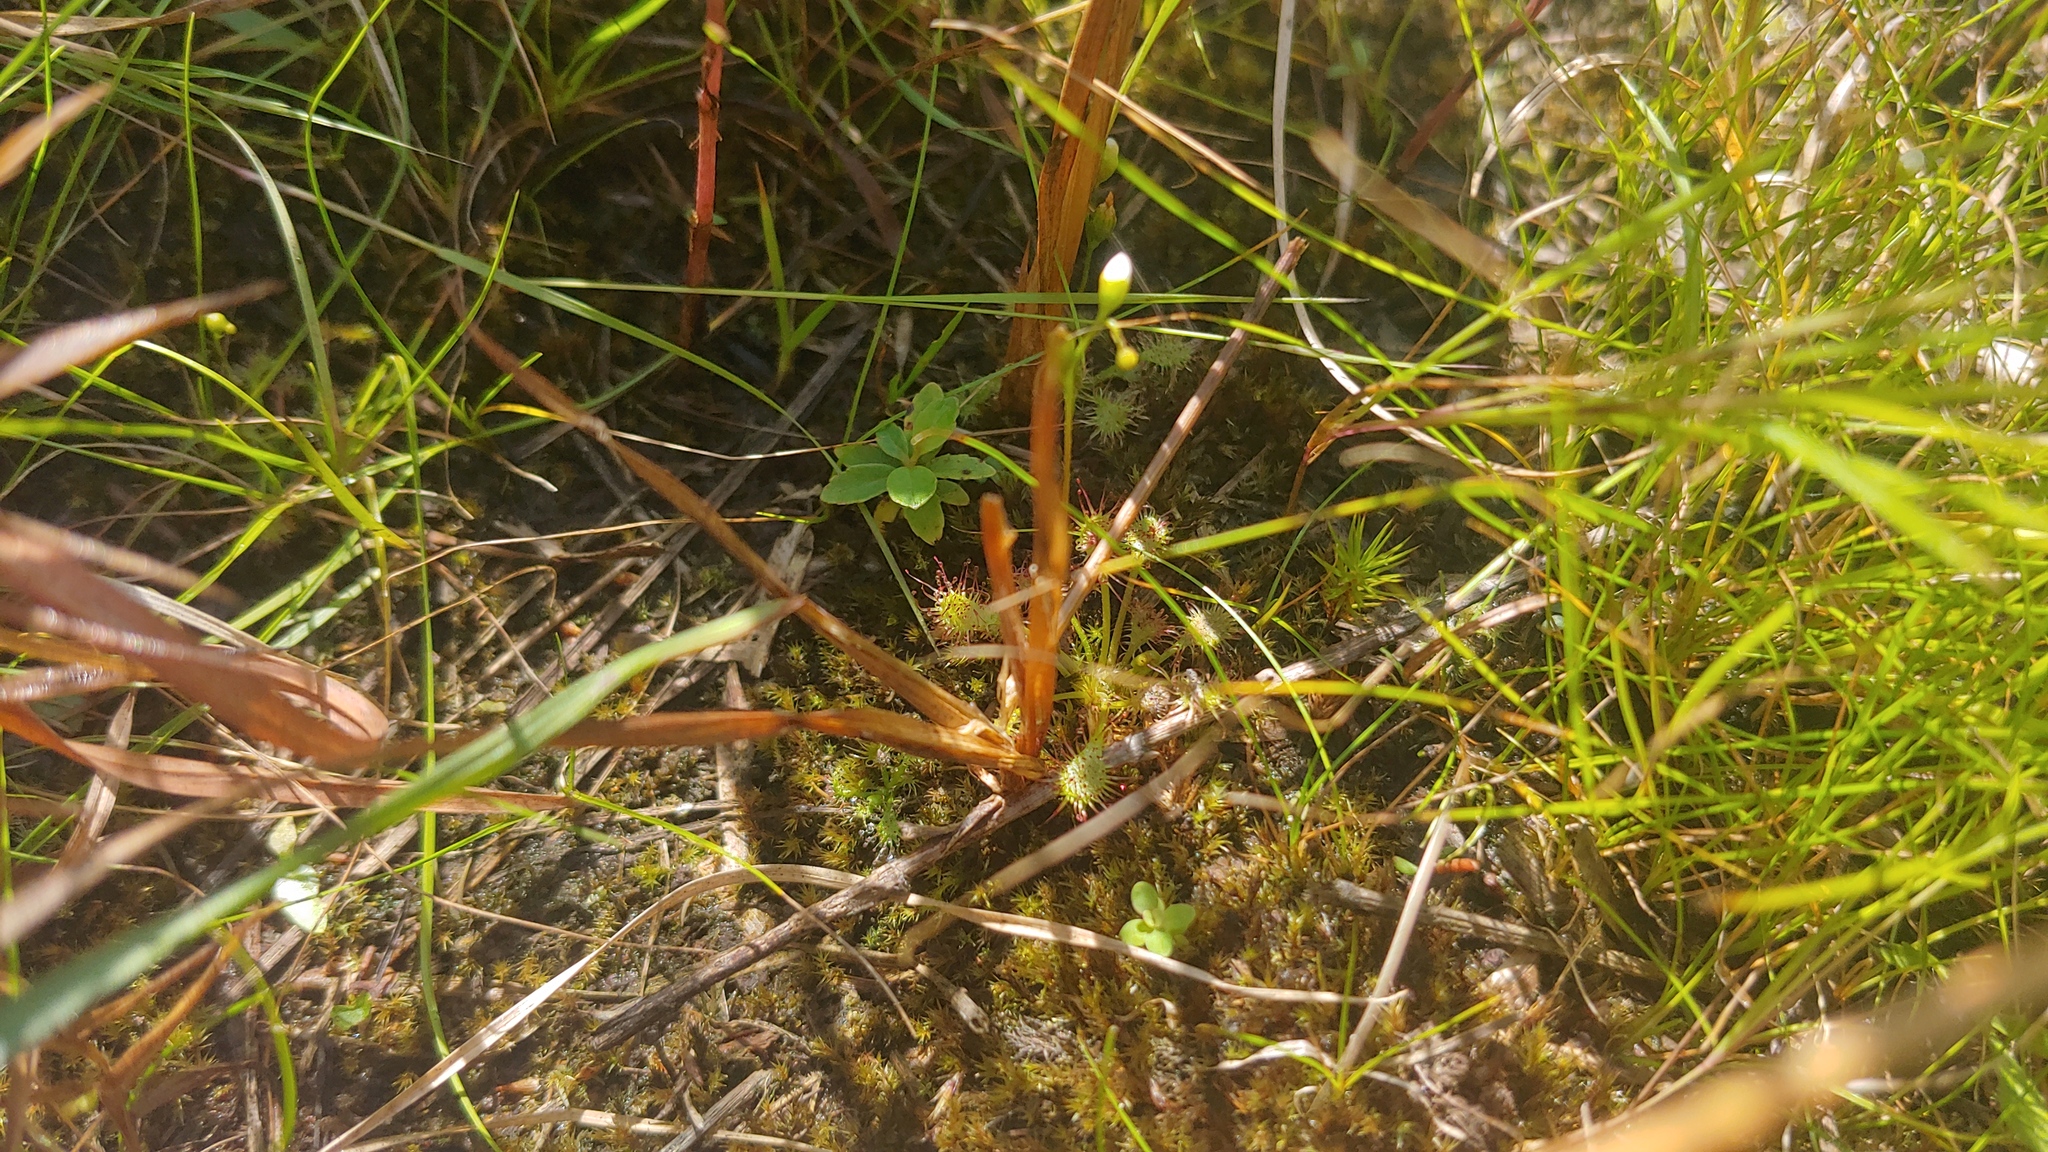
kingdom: Plantae
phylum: Tracheophyta
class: Magnoliopsida
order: Caryophyllales
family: Droseraceae
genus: Drosera
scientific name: Drosera intermedia
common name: Oblong-leaved sundew
